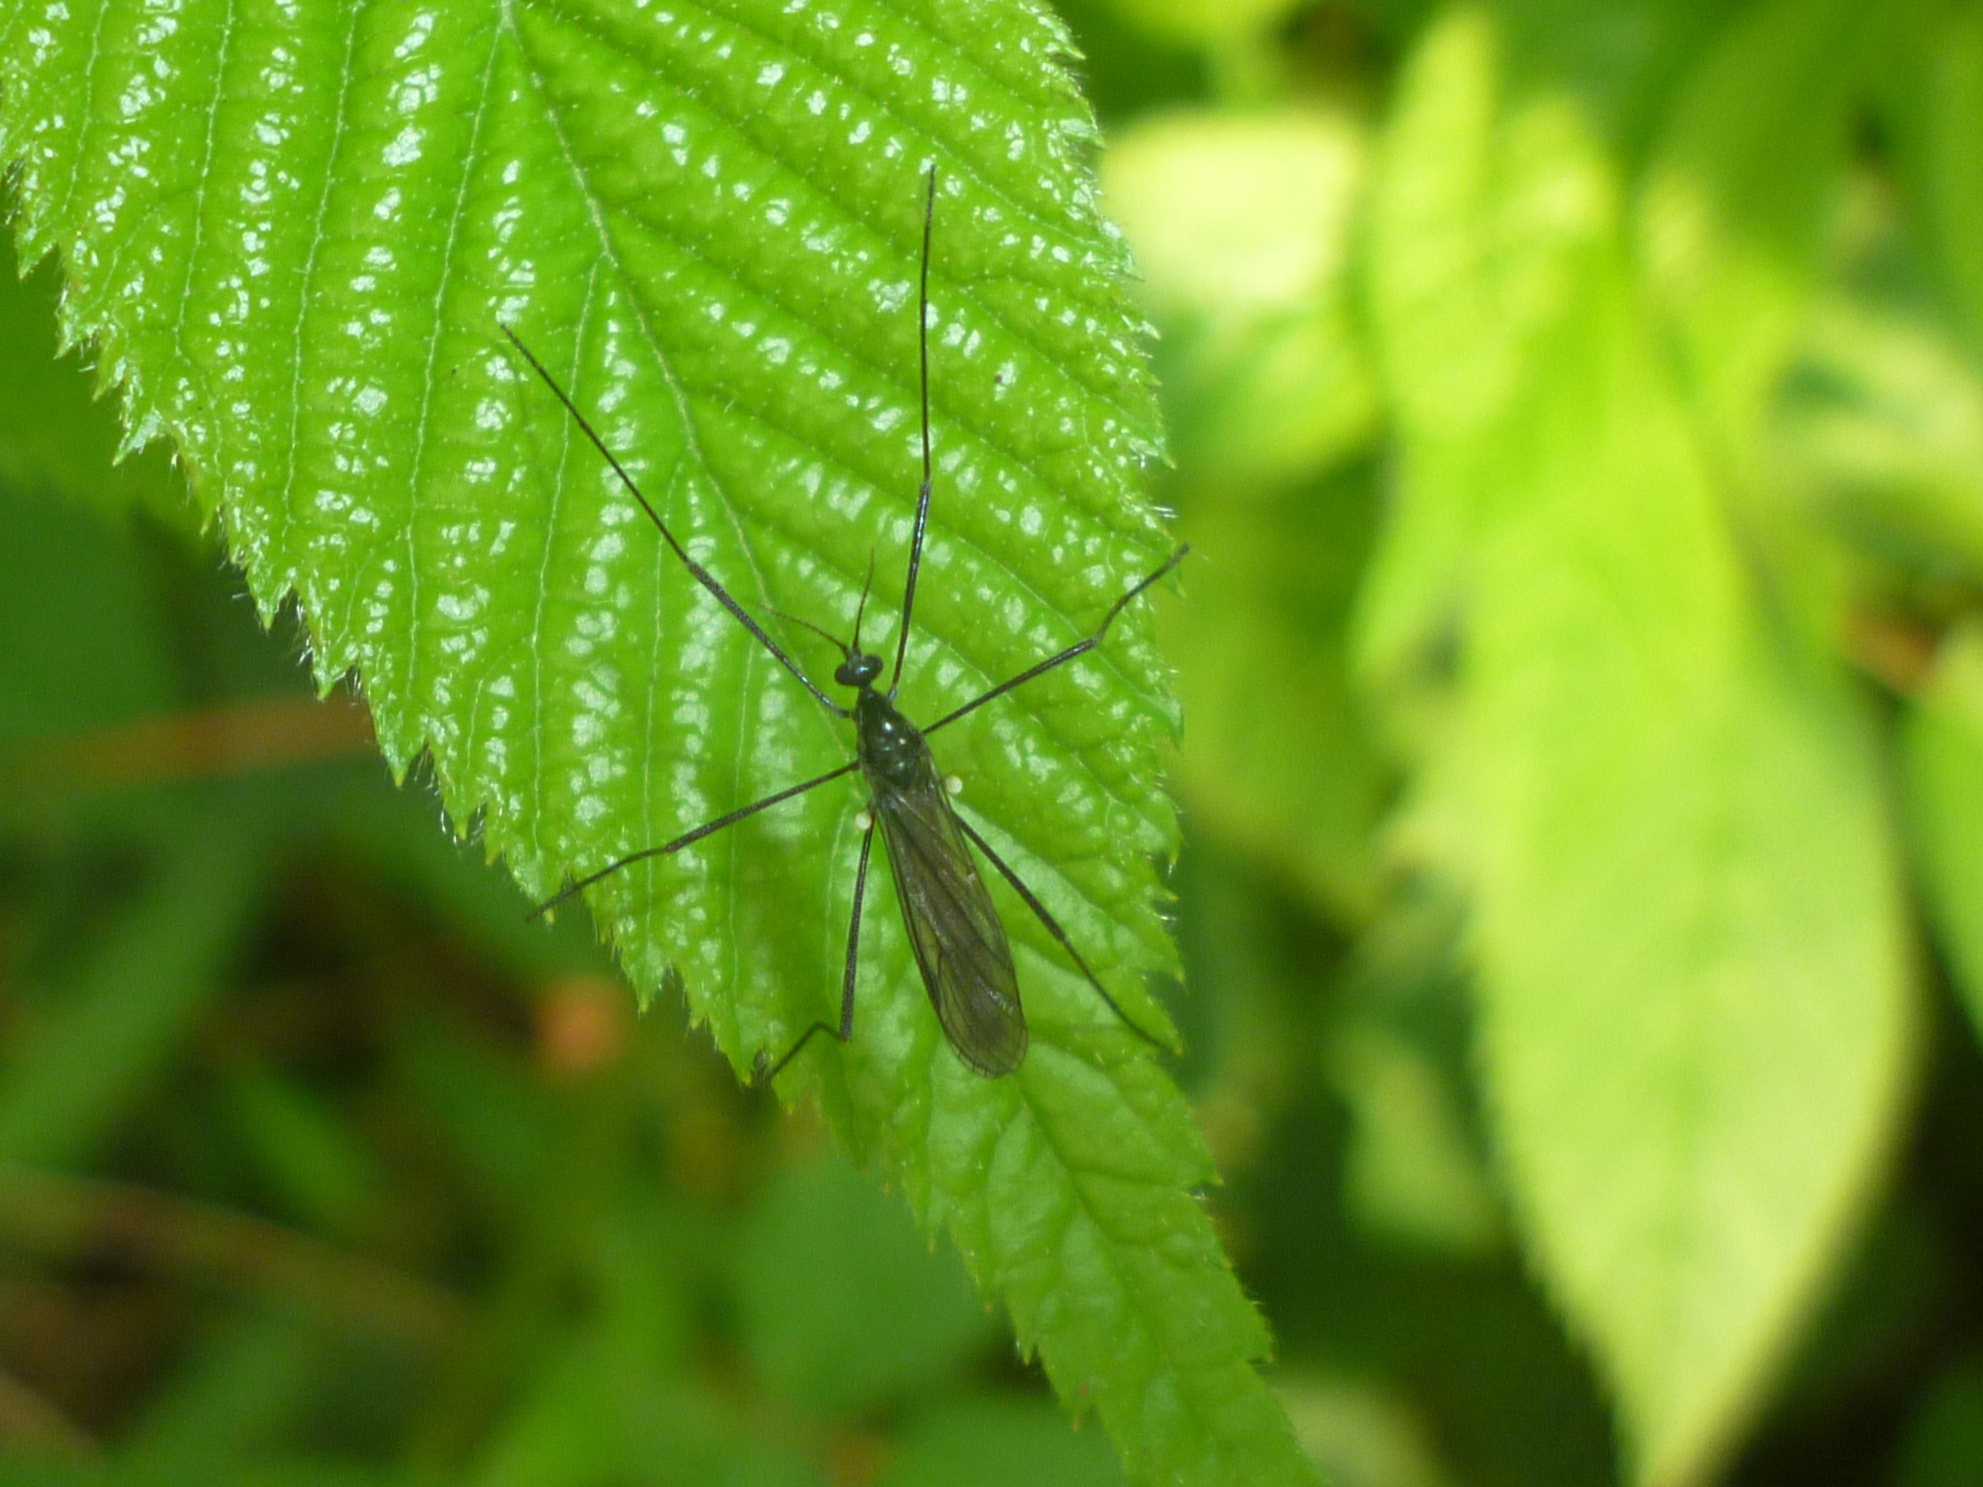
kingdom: Animalia
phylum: Arthropoda
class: Insecta
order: Diptera
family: Limoniidae
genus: Gnophomyia
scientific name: Gnophomyia tristissima
